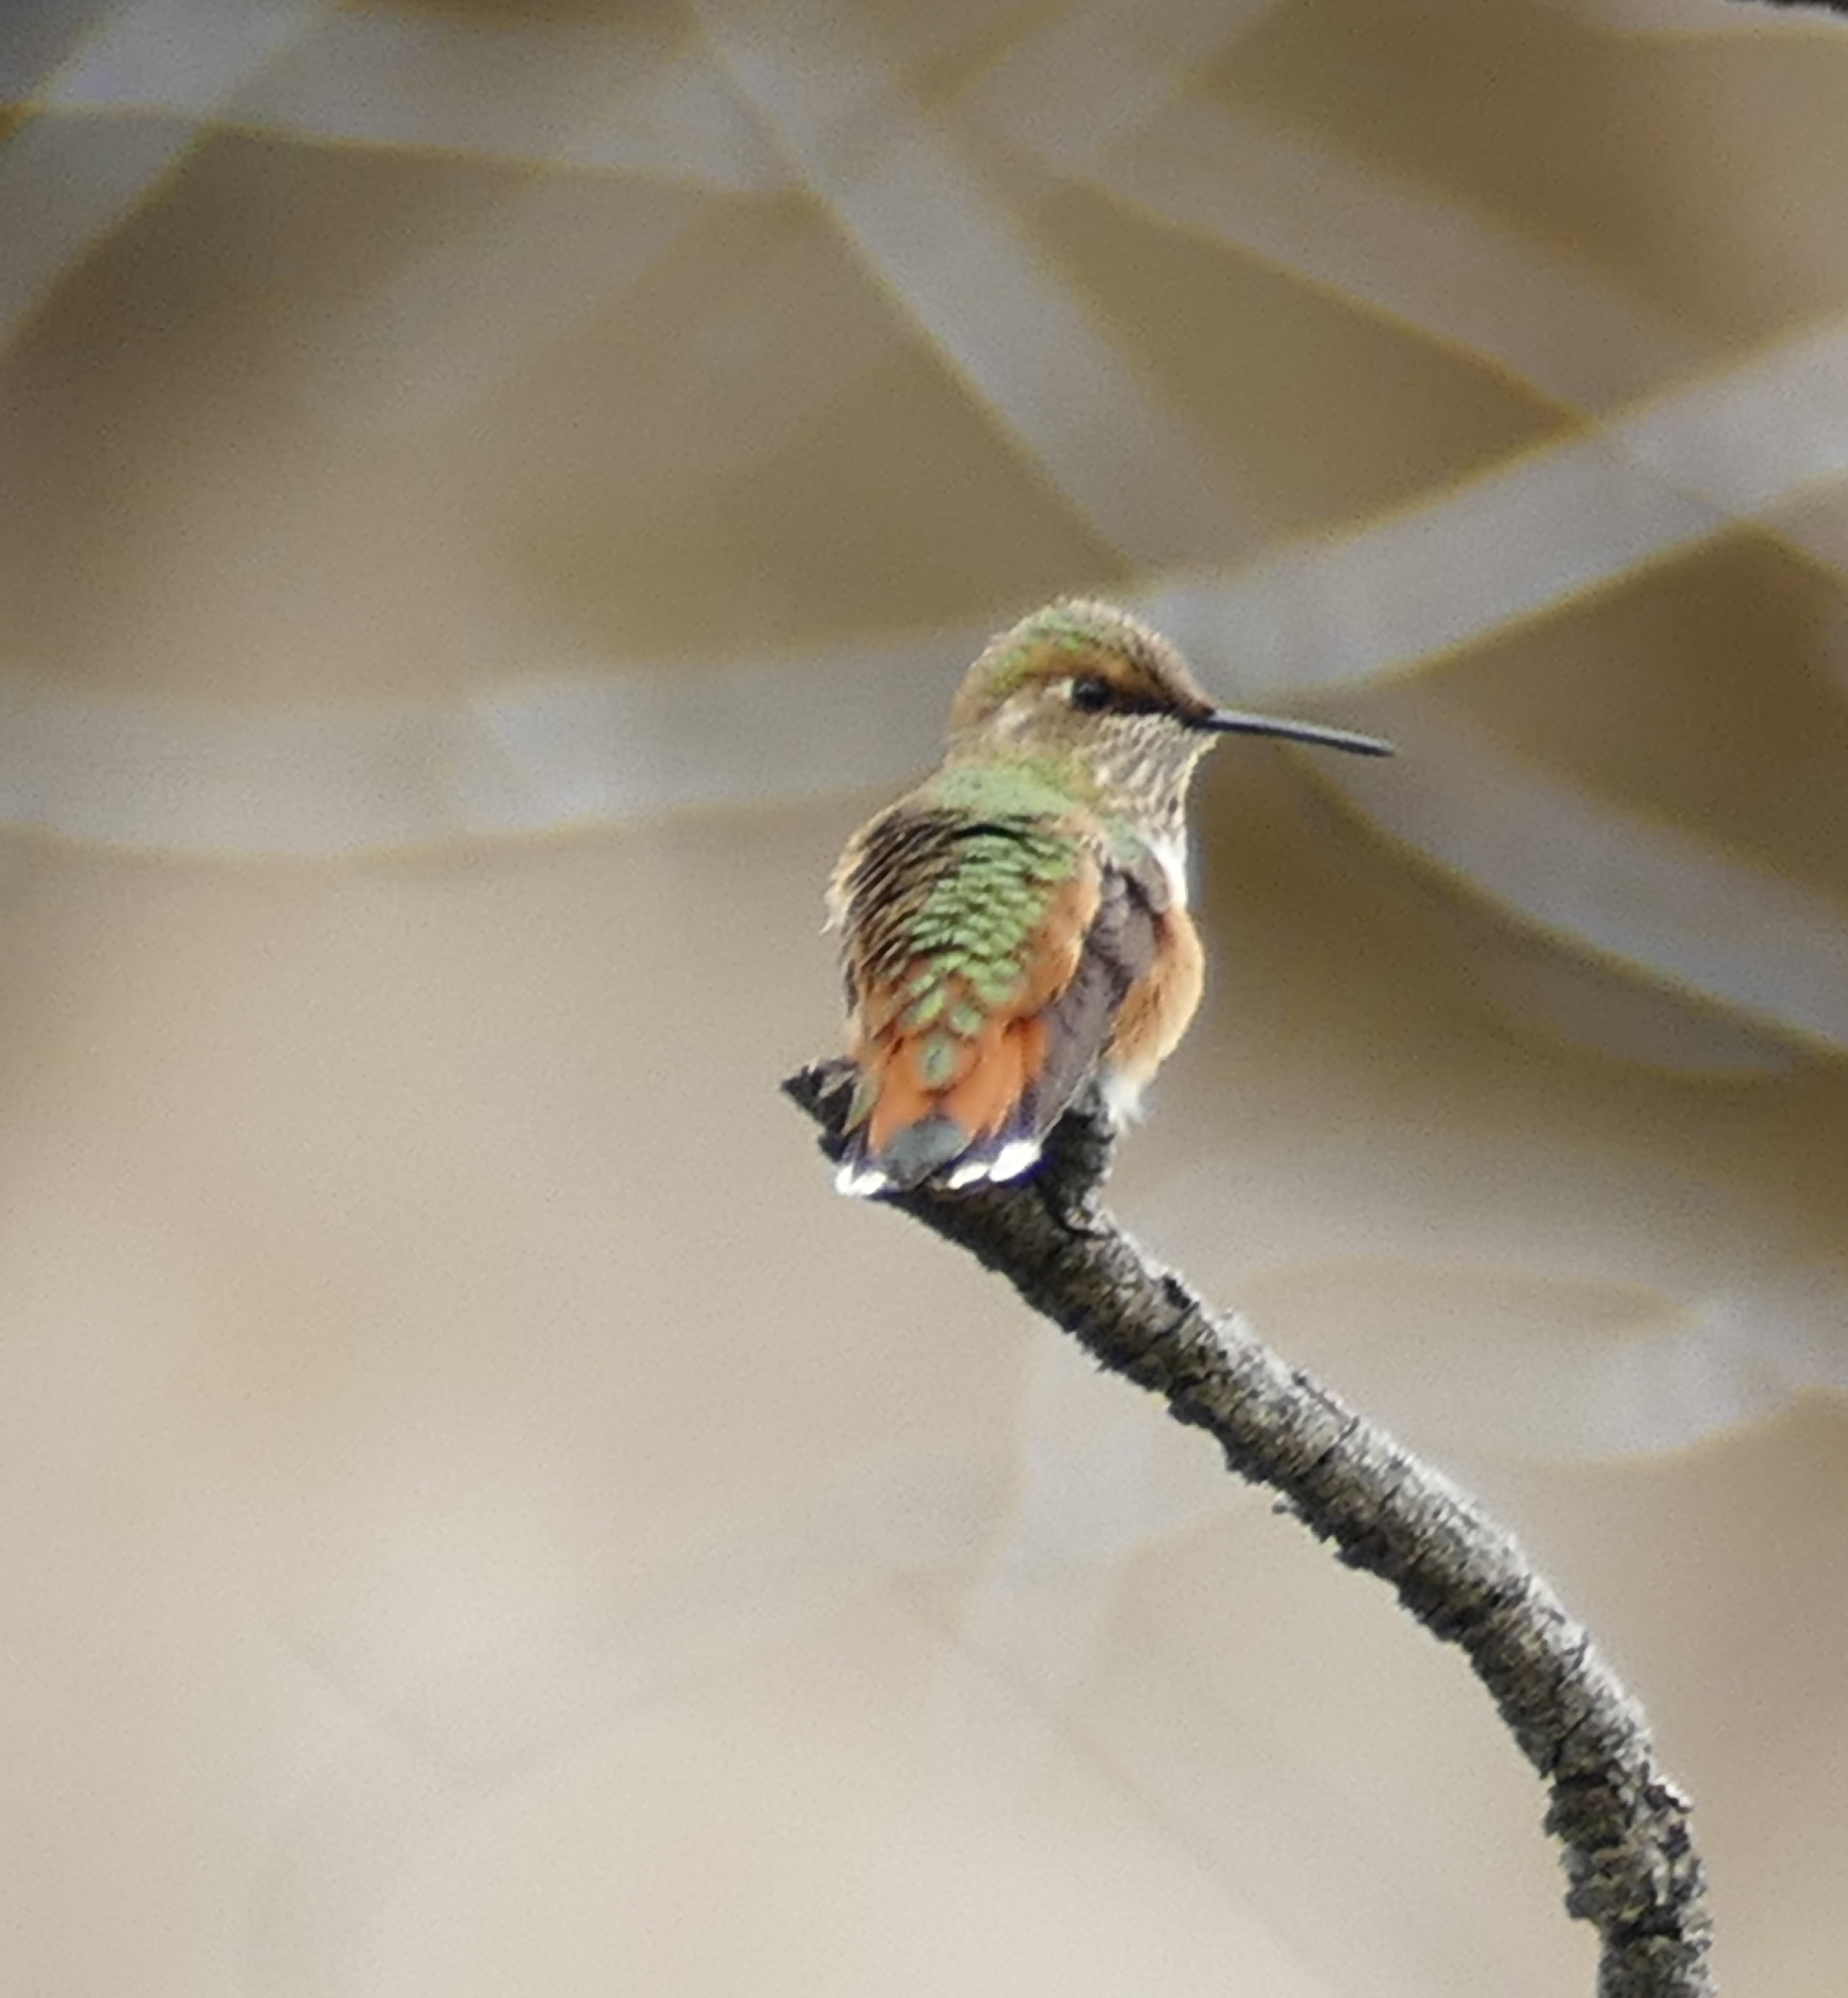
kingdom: Animalia
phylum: Chordata
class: Aves
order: Apodiformes
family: Trochilidae
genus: Selasphorus
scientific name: Selasphorus rufus
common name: Rufous hummingbird
